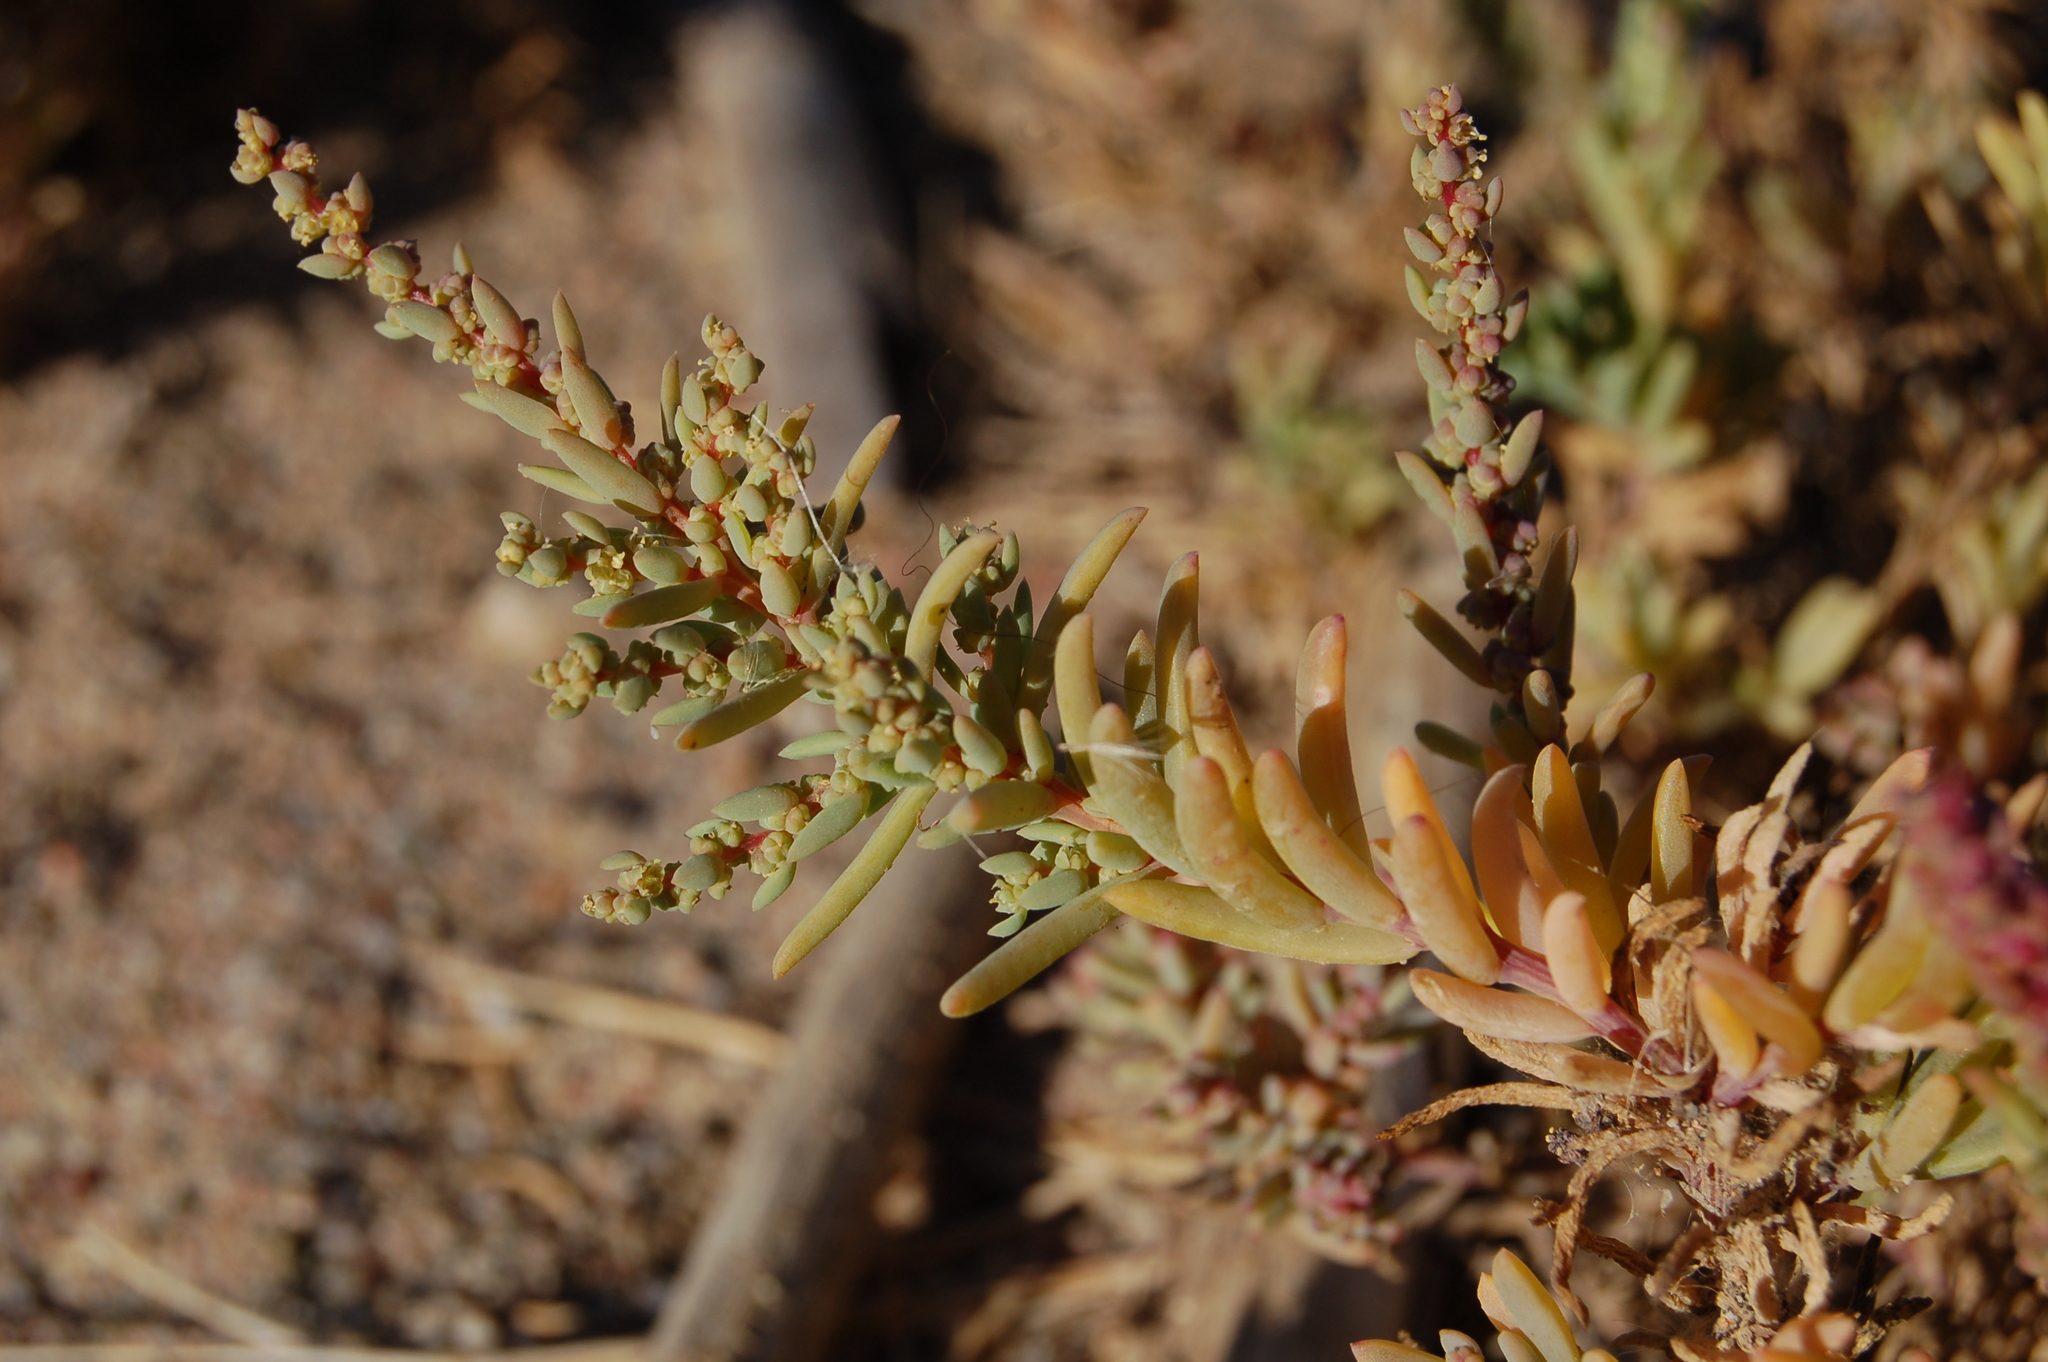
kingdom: Plantae
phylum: Tracheophyta
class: Magnoliopsida
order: Caryophyllales
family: Amaranthaceae
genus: Suaeda
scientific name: Suaeda spicata
